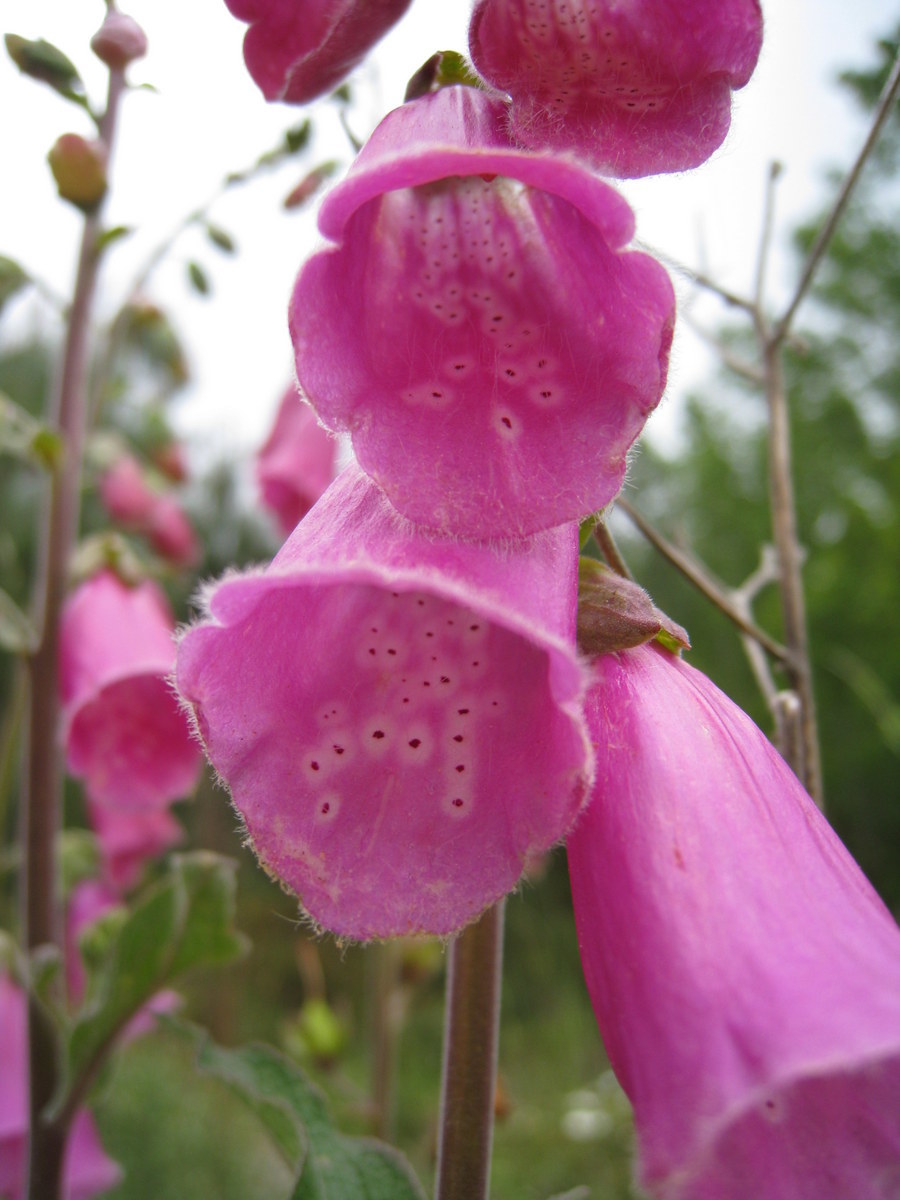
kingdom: Plantae
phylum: Tracheophyta
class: Magnoliopsida
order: Lamiales
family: Plantaginaceae
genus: Digitalis
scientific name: Digitalis purpurea
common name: Foxglove
